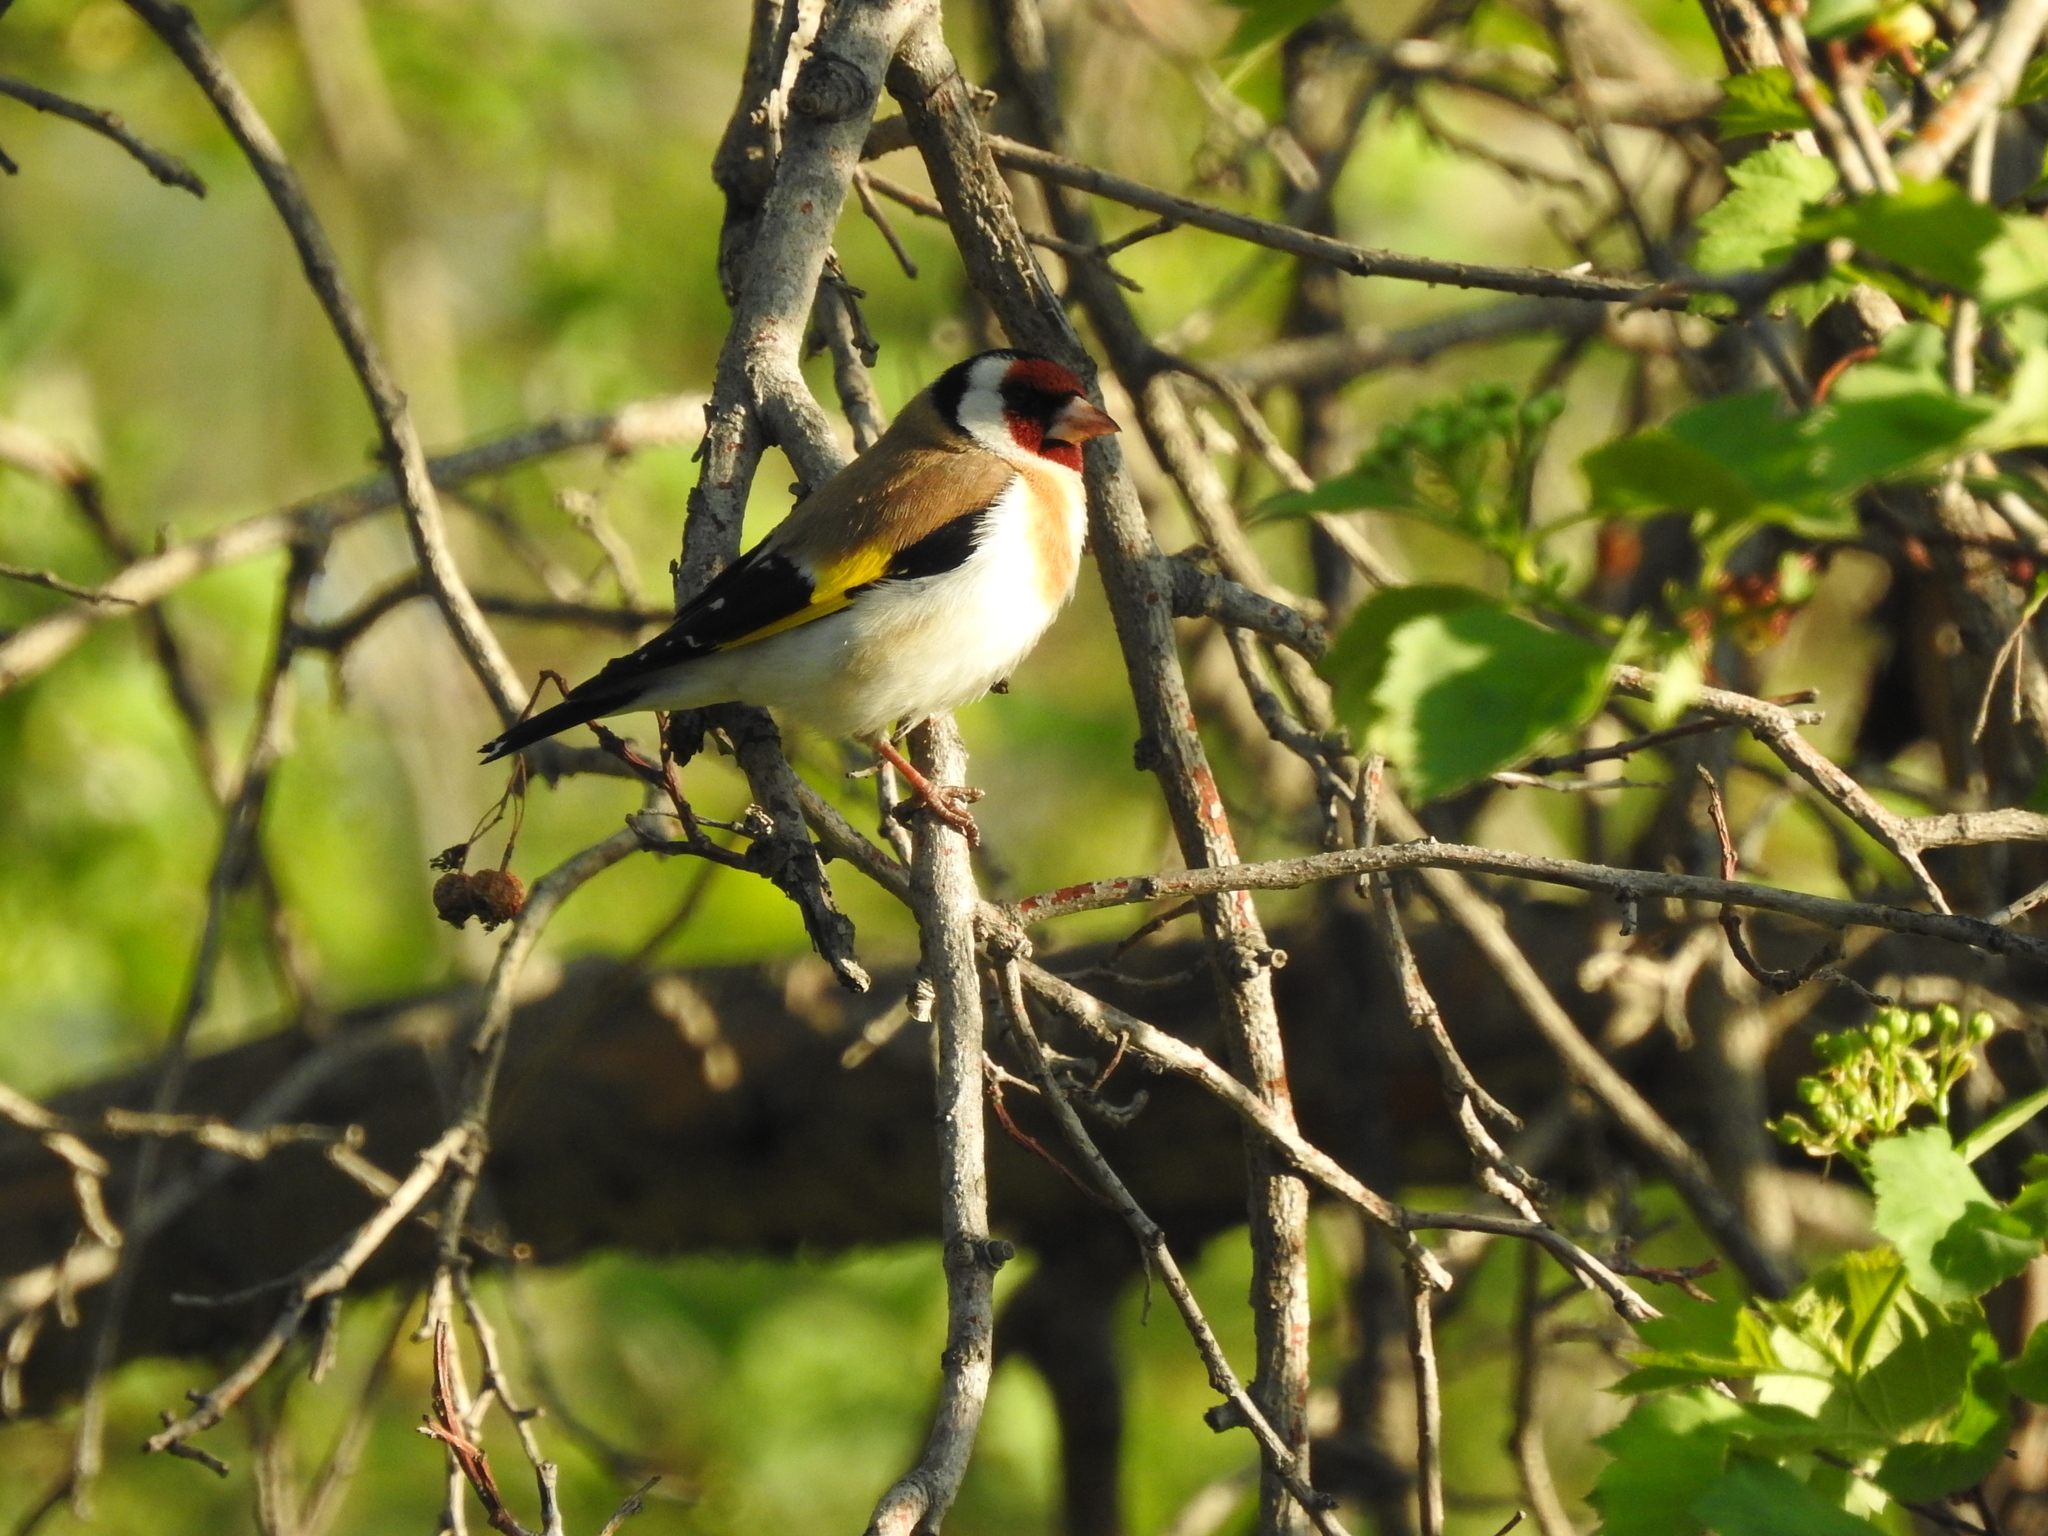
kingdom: Animalia
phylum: Chordata
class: Aves
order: Passeriformes
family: Fringillidae
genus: Carduelis
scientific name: Carduelis carduelis
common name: European goldfinch
